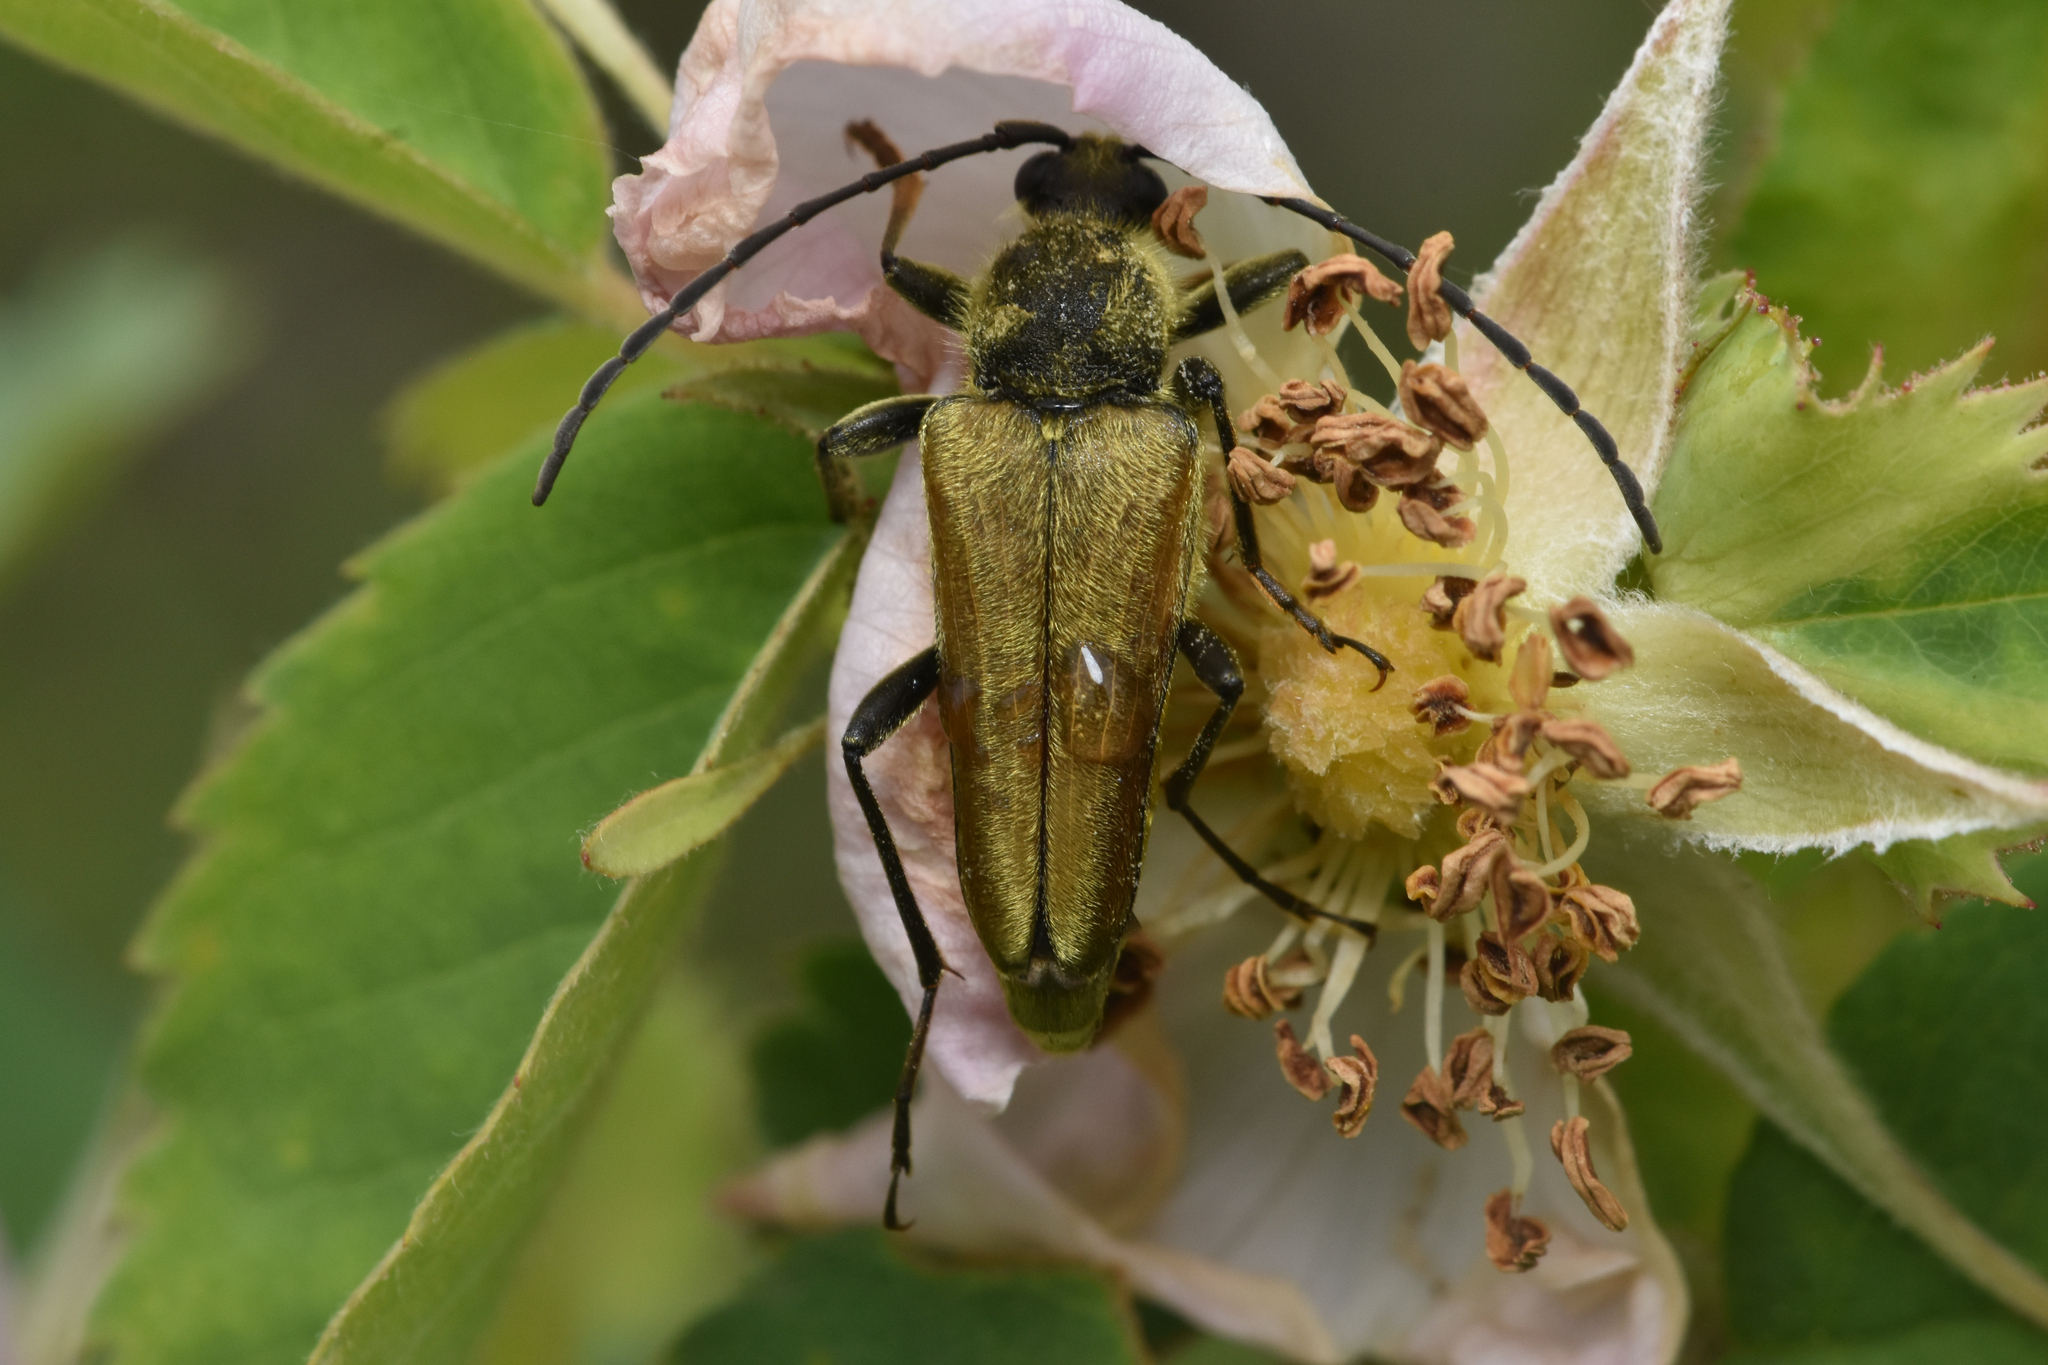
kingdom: Animalia
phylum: Arthropoda
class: Insecta
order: Coleoptera
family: Cerambycidae
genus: Cosmosalia
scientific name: Cosmosalia chrysocoma
